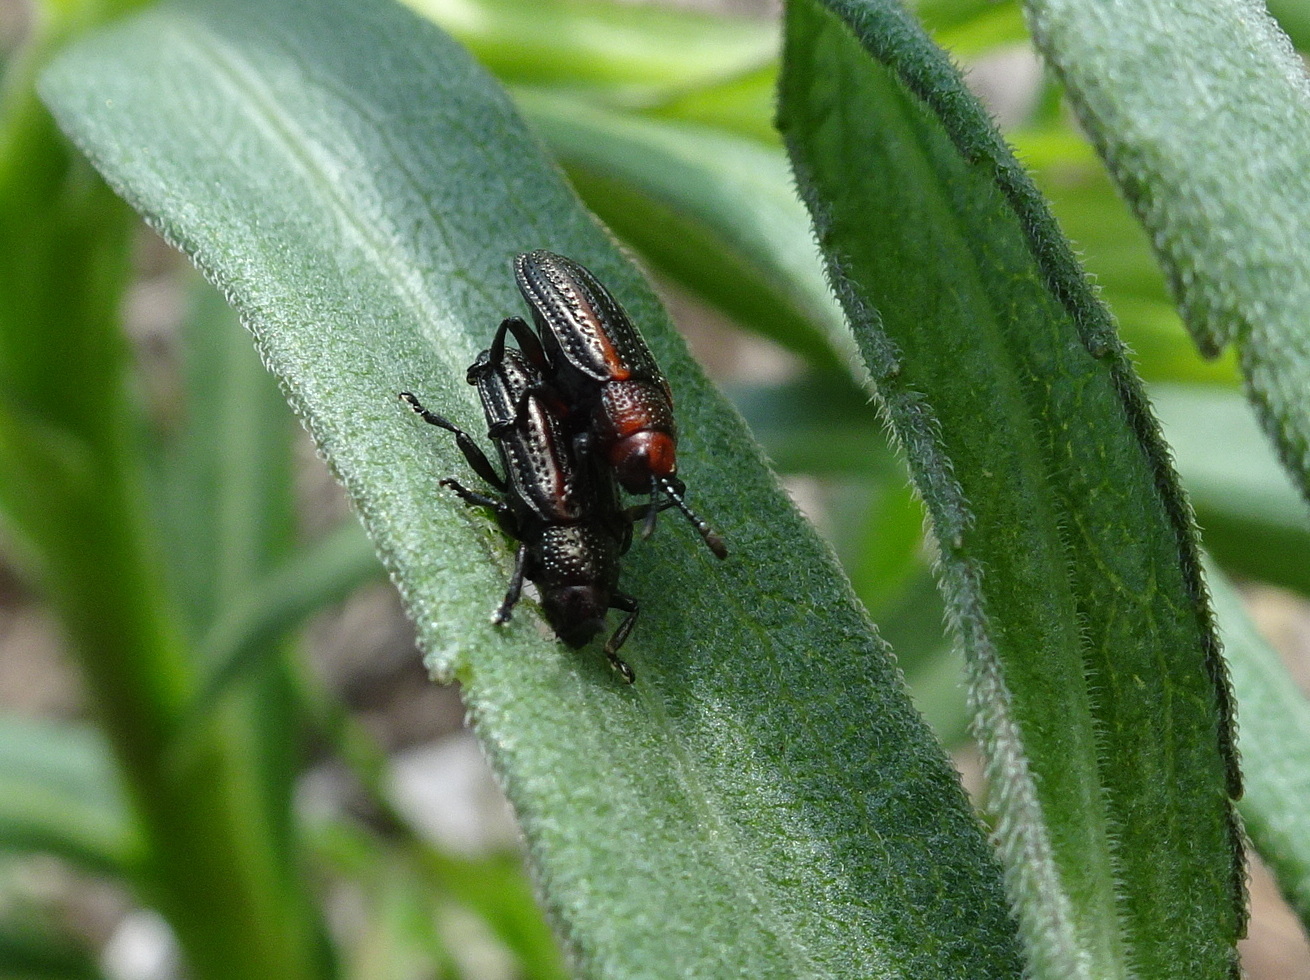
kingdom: Animalia
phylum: Arthropoda
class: Insecta
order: Coleoptera
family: Chrysomelidae
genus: Microrhopala
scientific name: Microrhopala vittata
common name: Goldenrod leaf miner beetle
